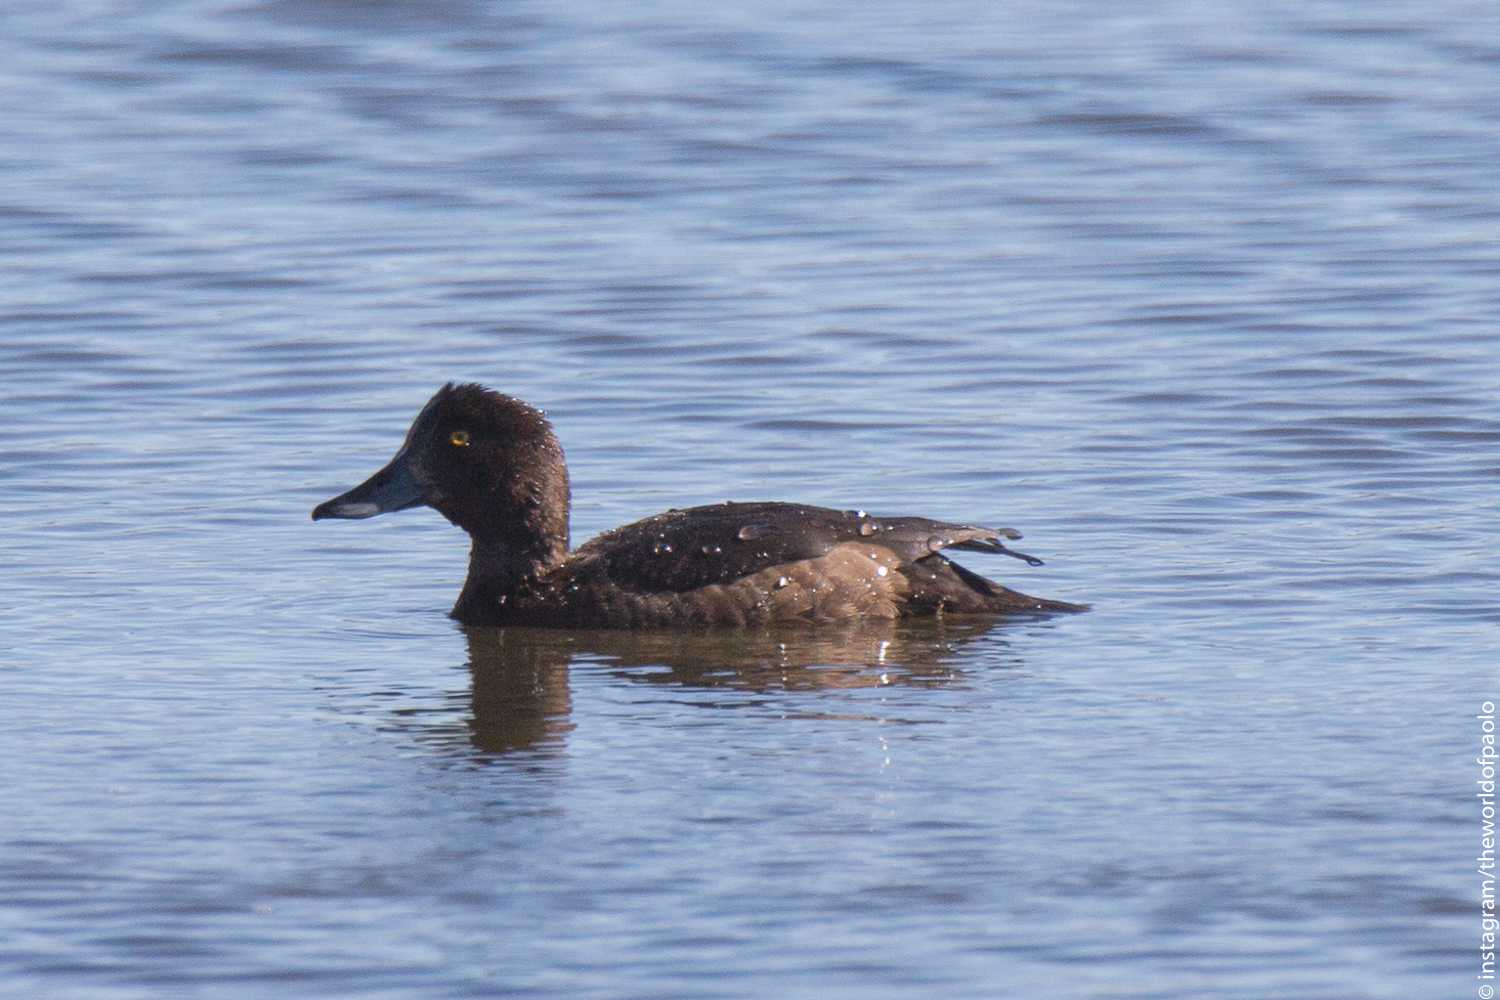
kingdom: Animalia
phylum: Chordata
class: Aves
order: Anseriformes
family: Anatidae
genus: Aythya
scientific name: Aythya fuligula
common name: Tufted duck
